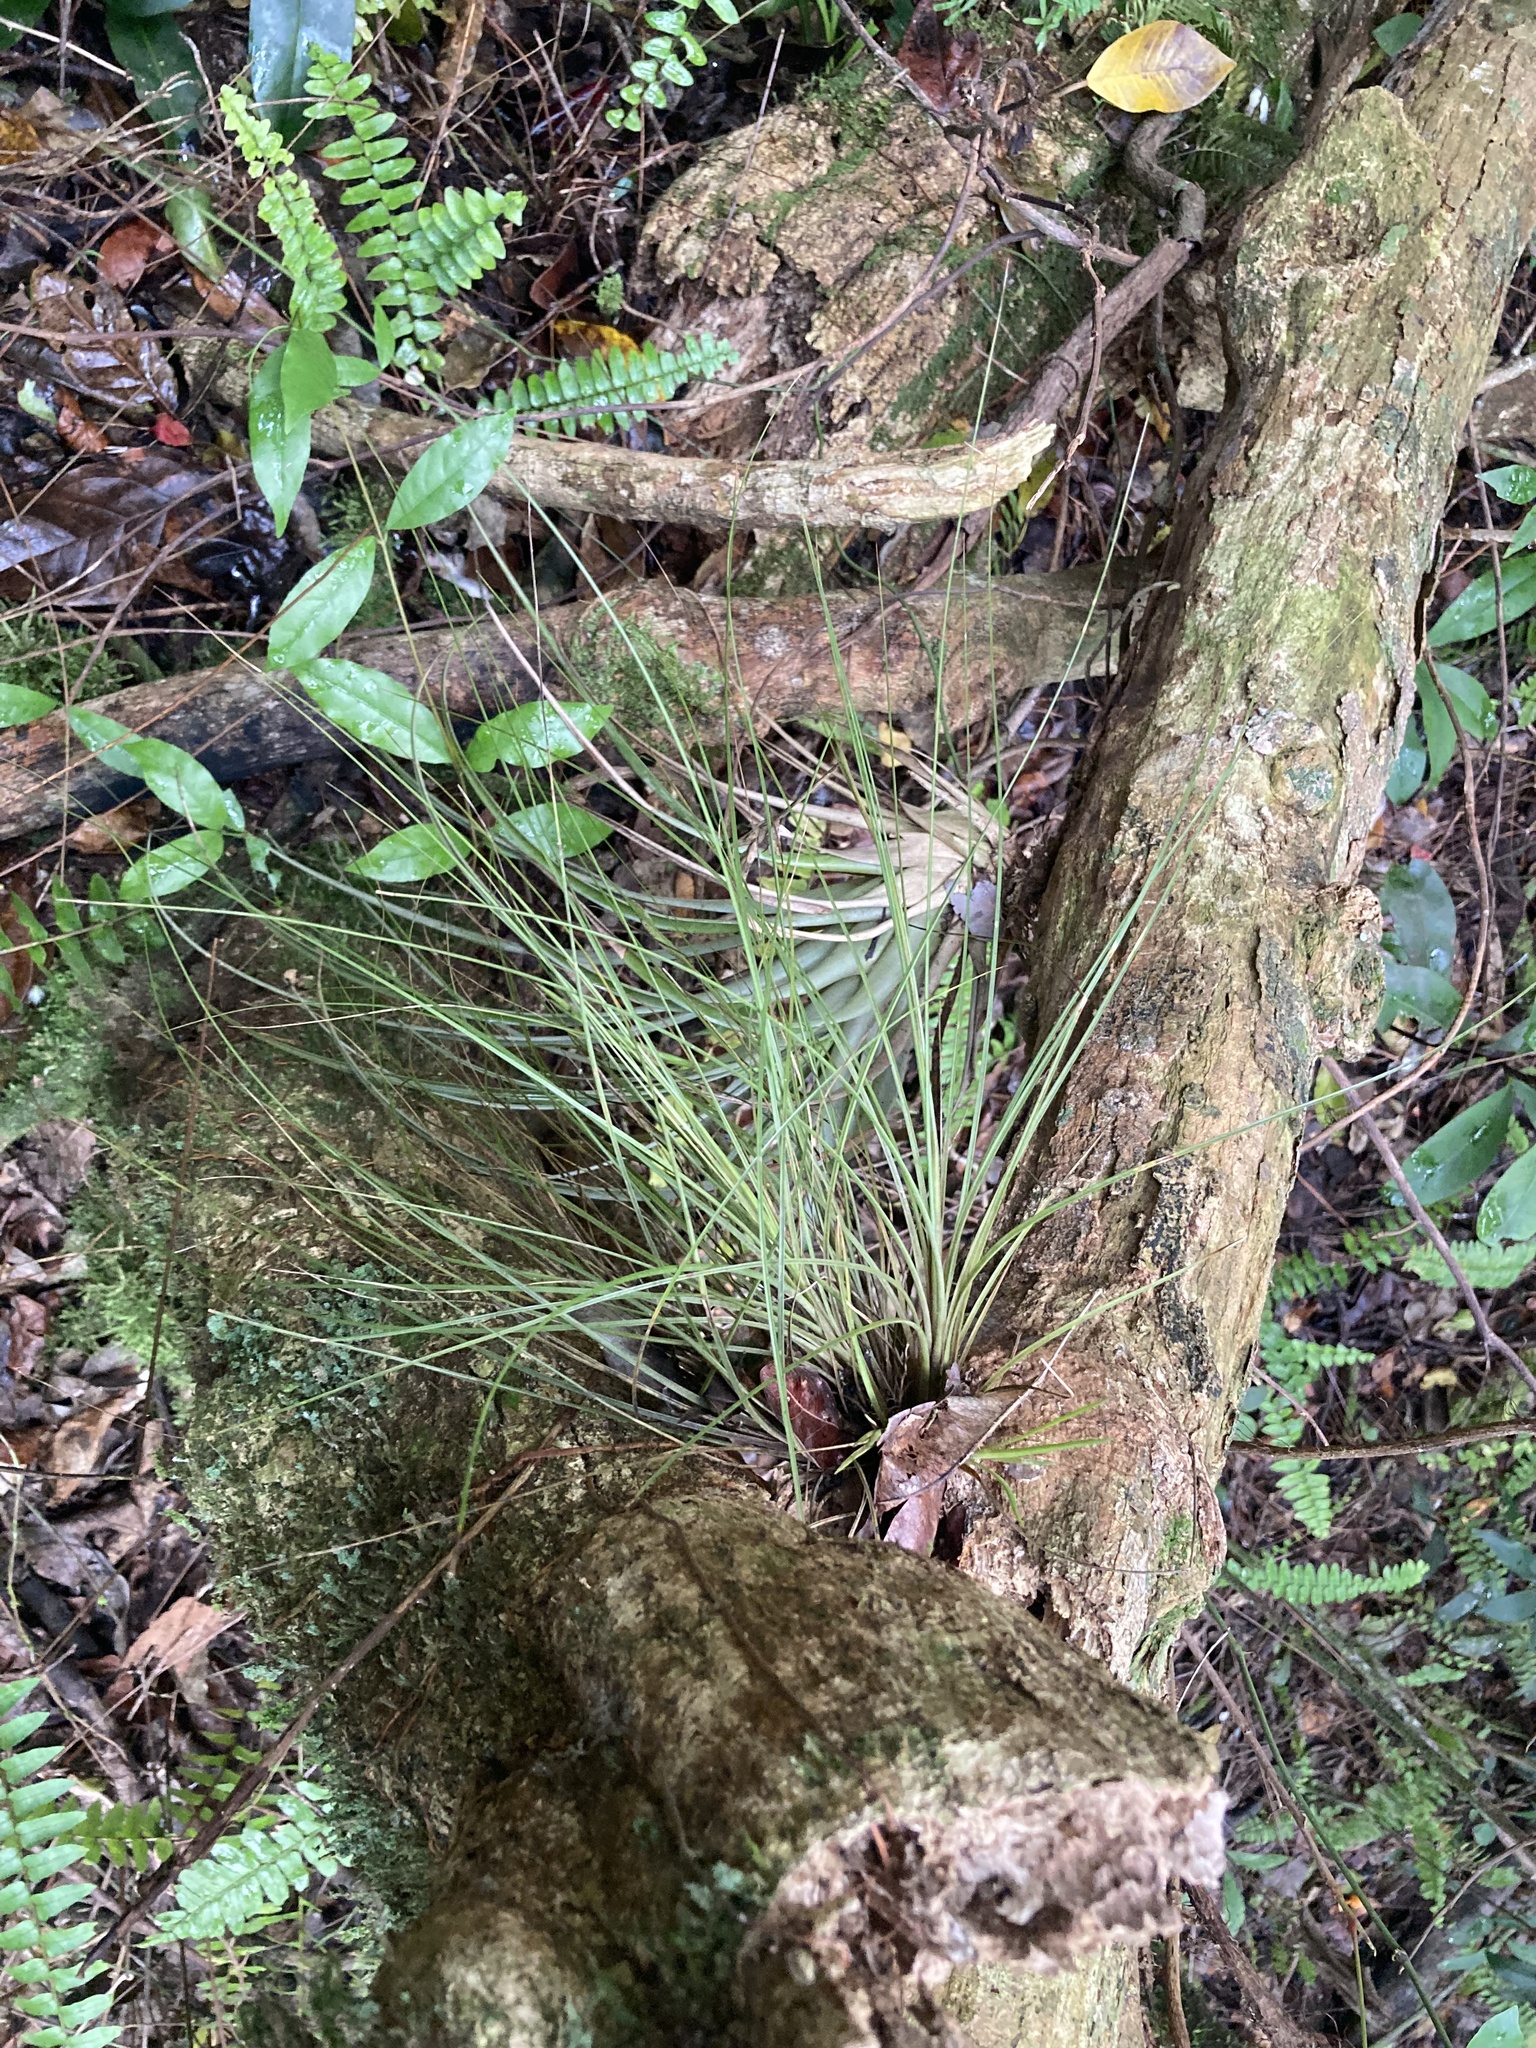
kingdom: Plantae
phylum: Tracheophyta
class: Liliopsida
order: Poales
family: Bromeliaceae
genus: Tillandsia
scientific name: Tillandsia setacea
